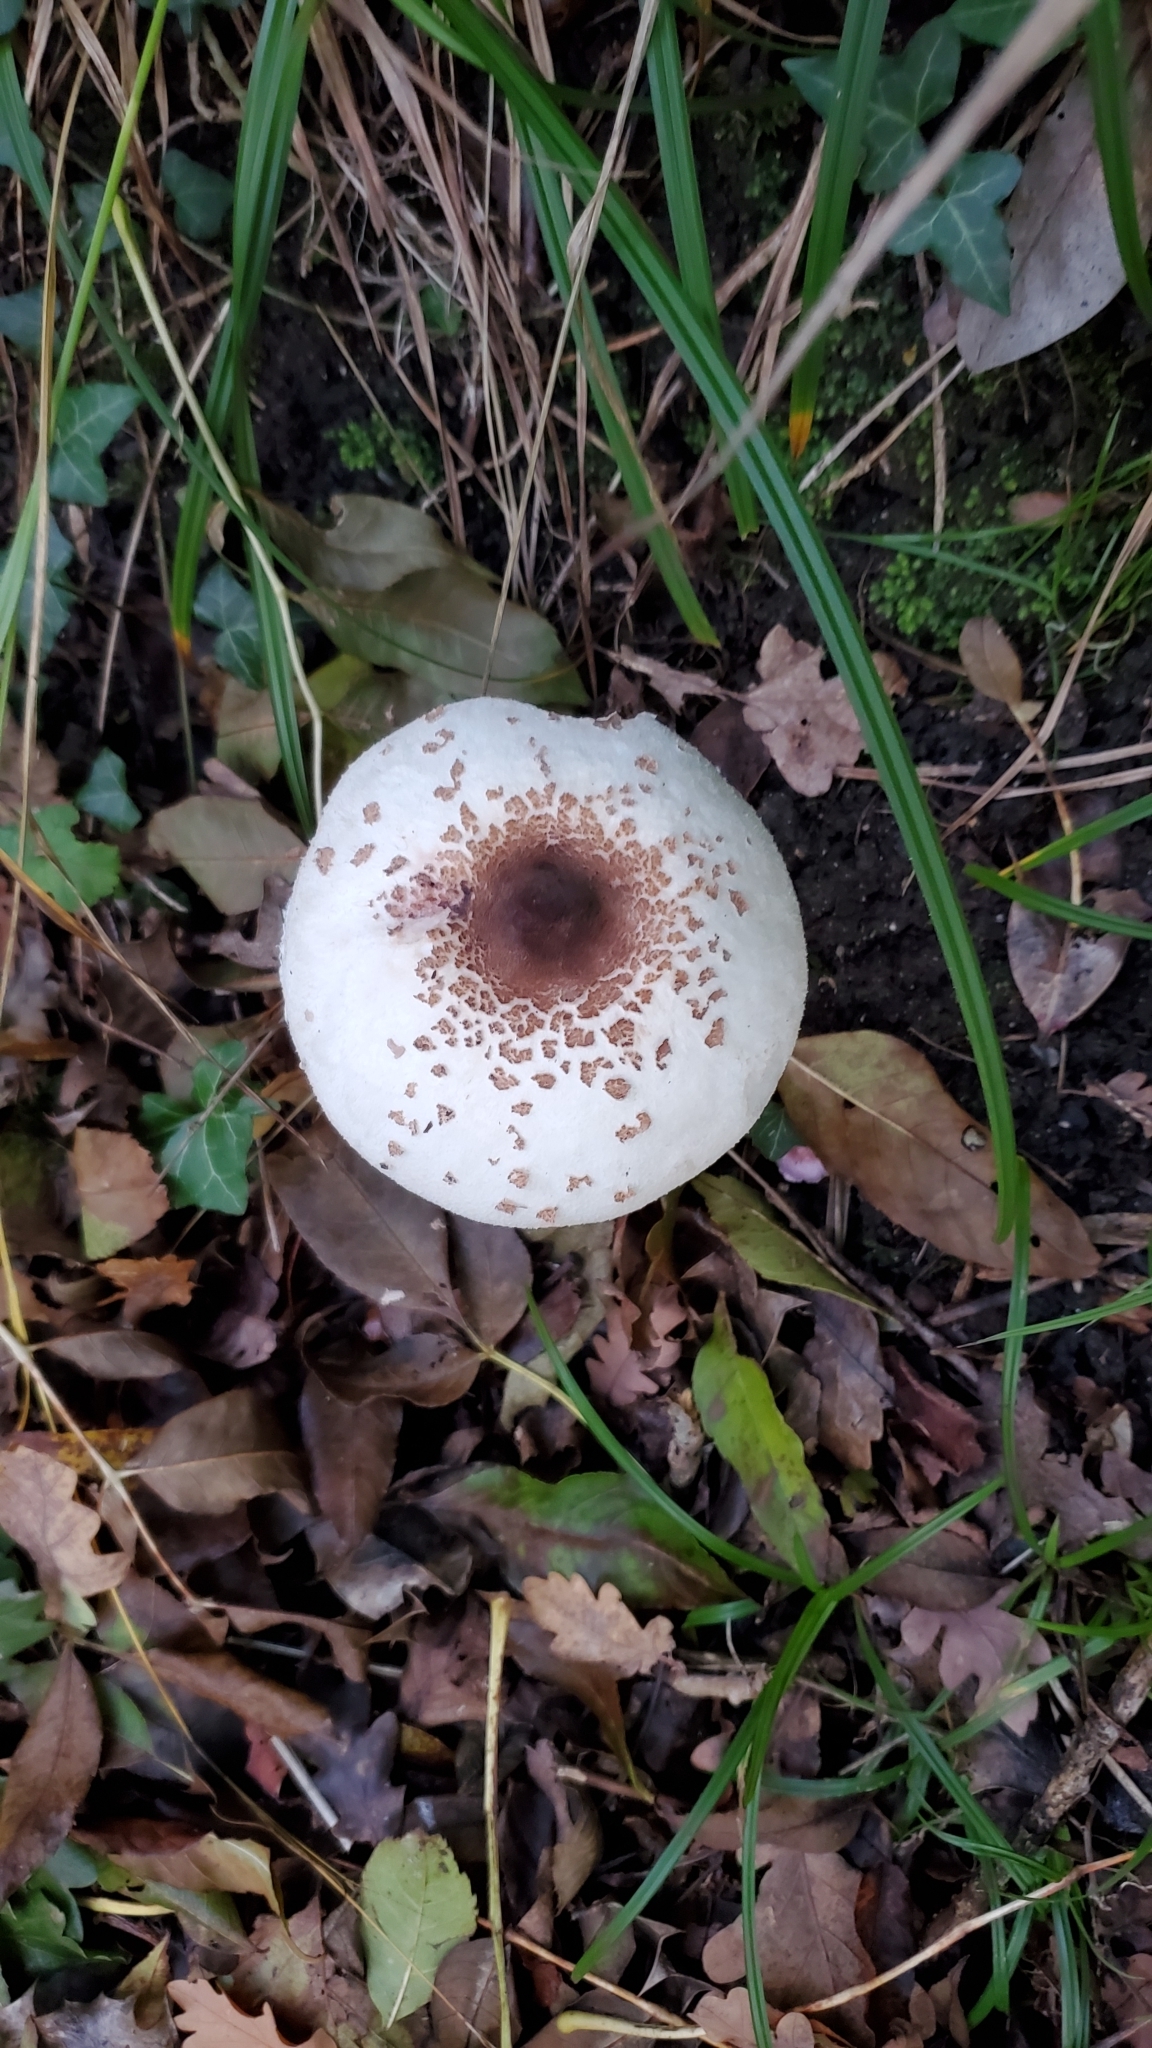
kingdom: Fungi
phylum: Basidiomycota
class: Agaricomycetes
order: Agaricales
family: Amanitaceae
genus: Amanita
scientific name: Amanita citrina
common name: False death-cap
